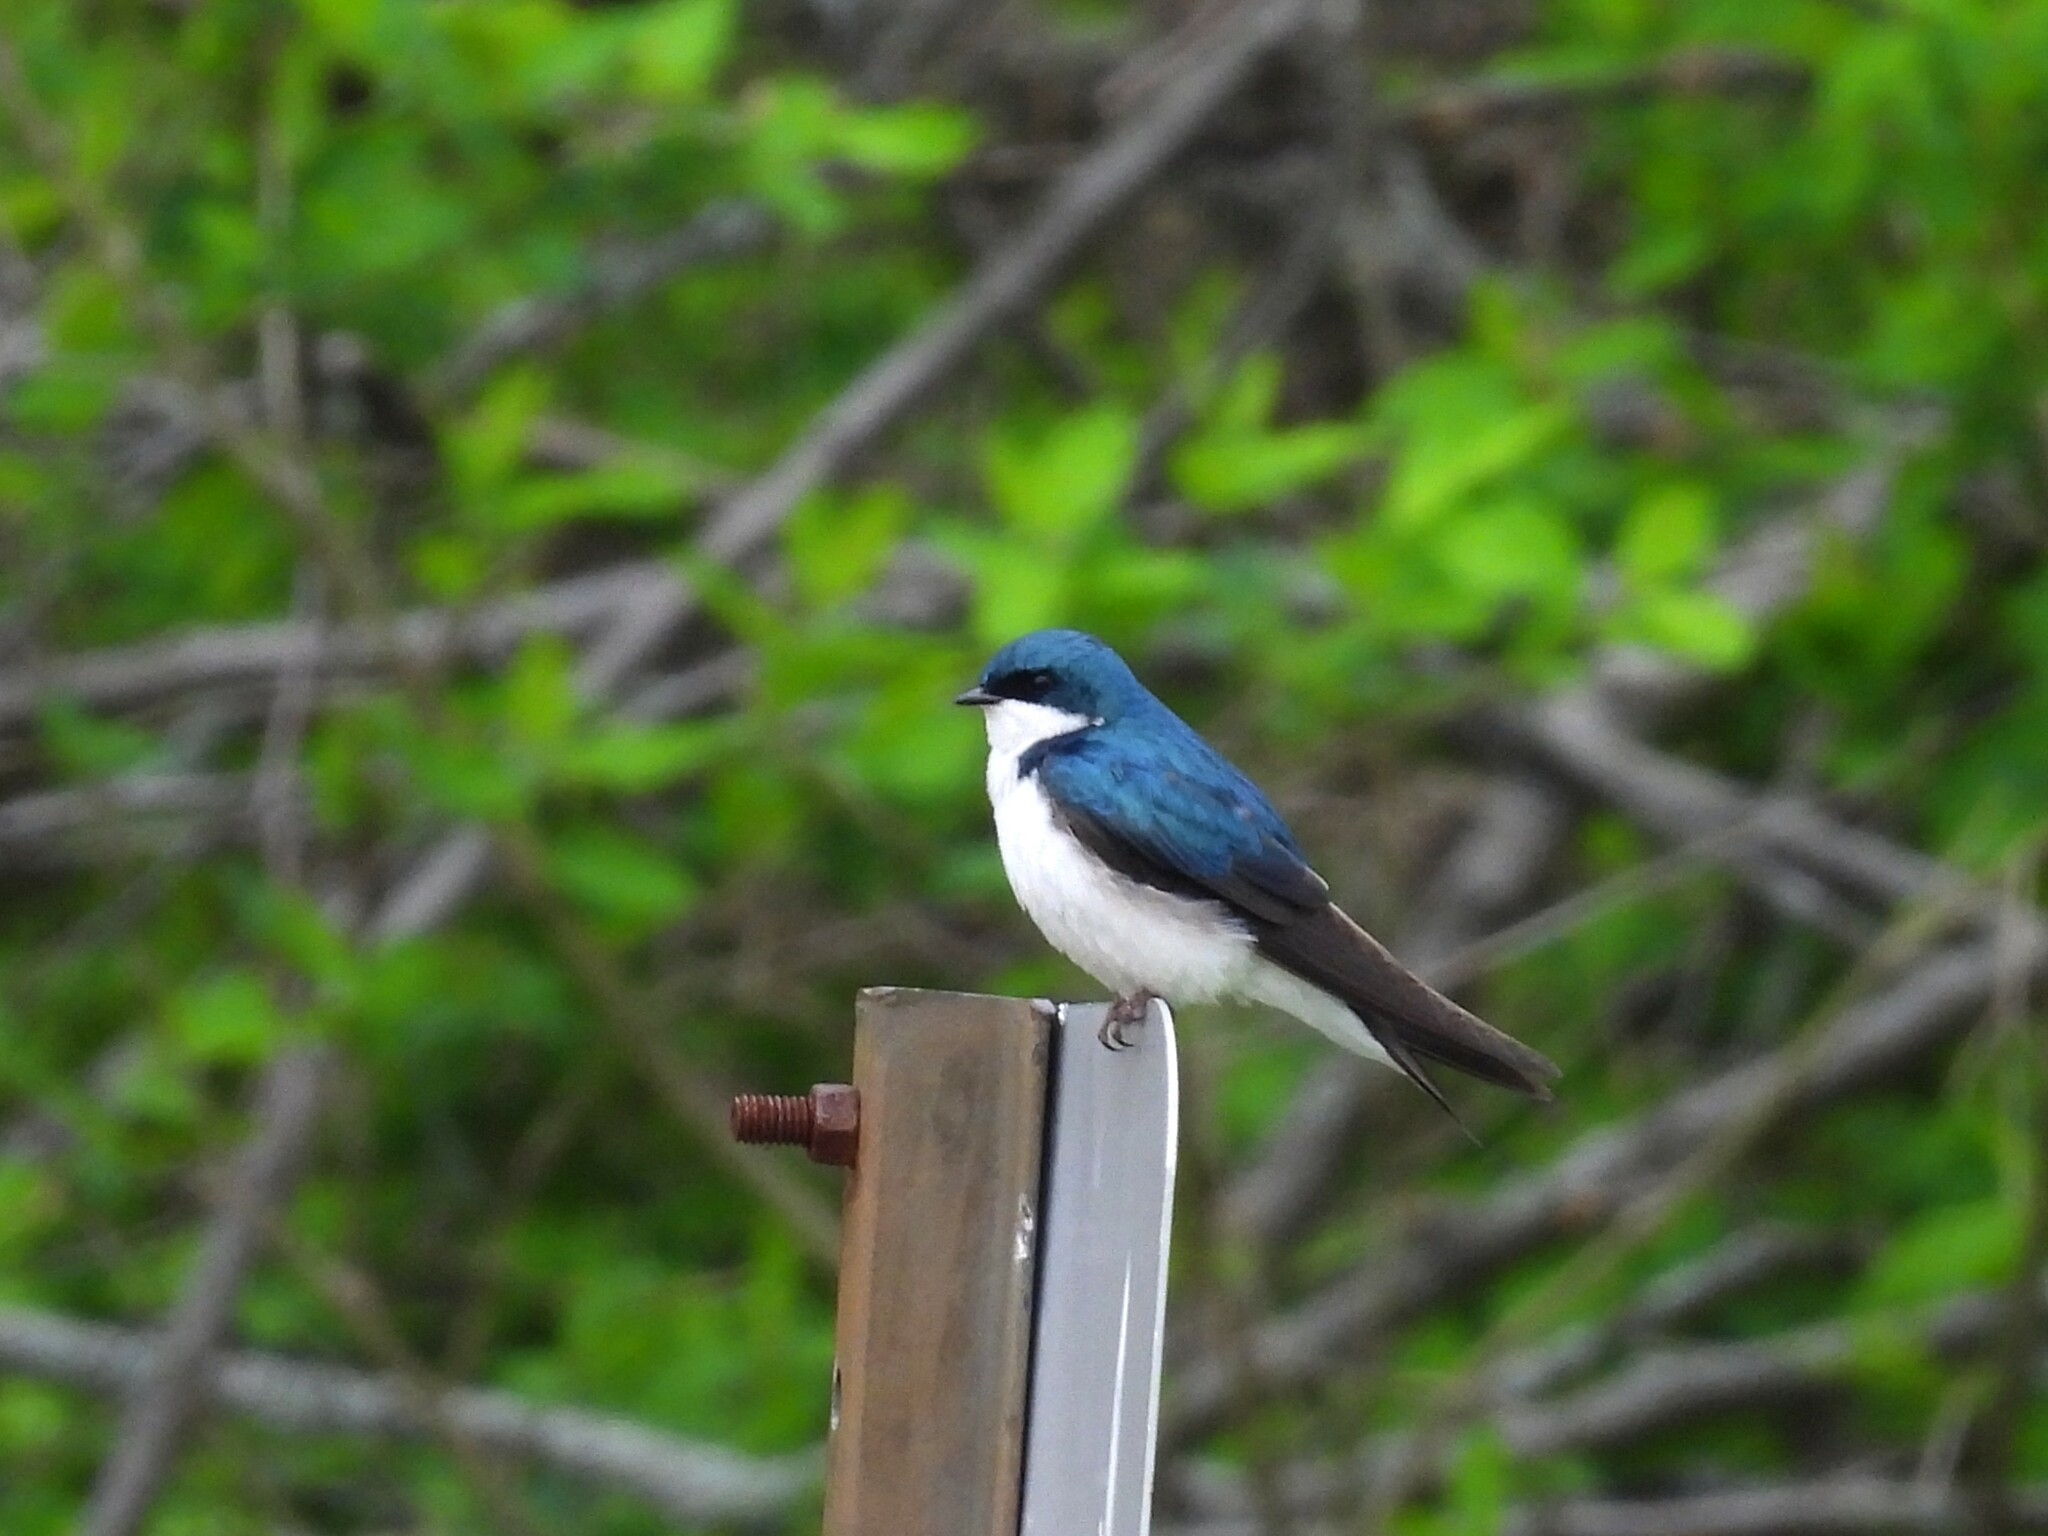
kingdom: Animalia
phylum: Chordata
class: Aves
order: Passeriformes
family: Hirundinidae
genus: Tachycineta
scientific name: Tachycineta bicolor
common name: Tree swallow
